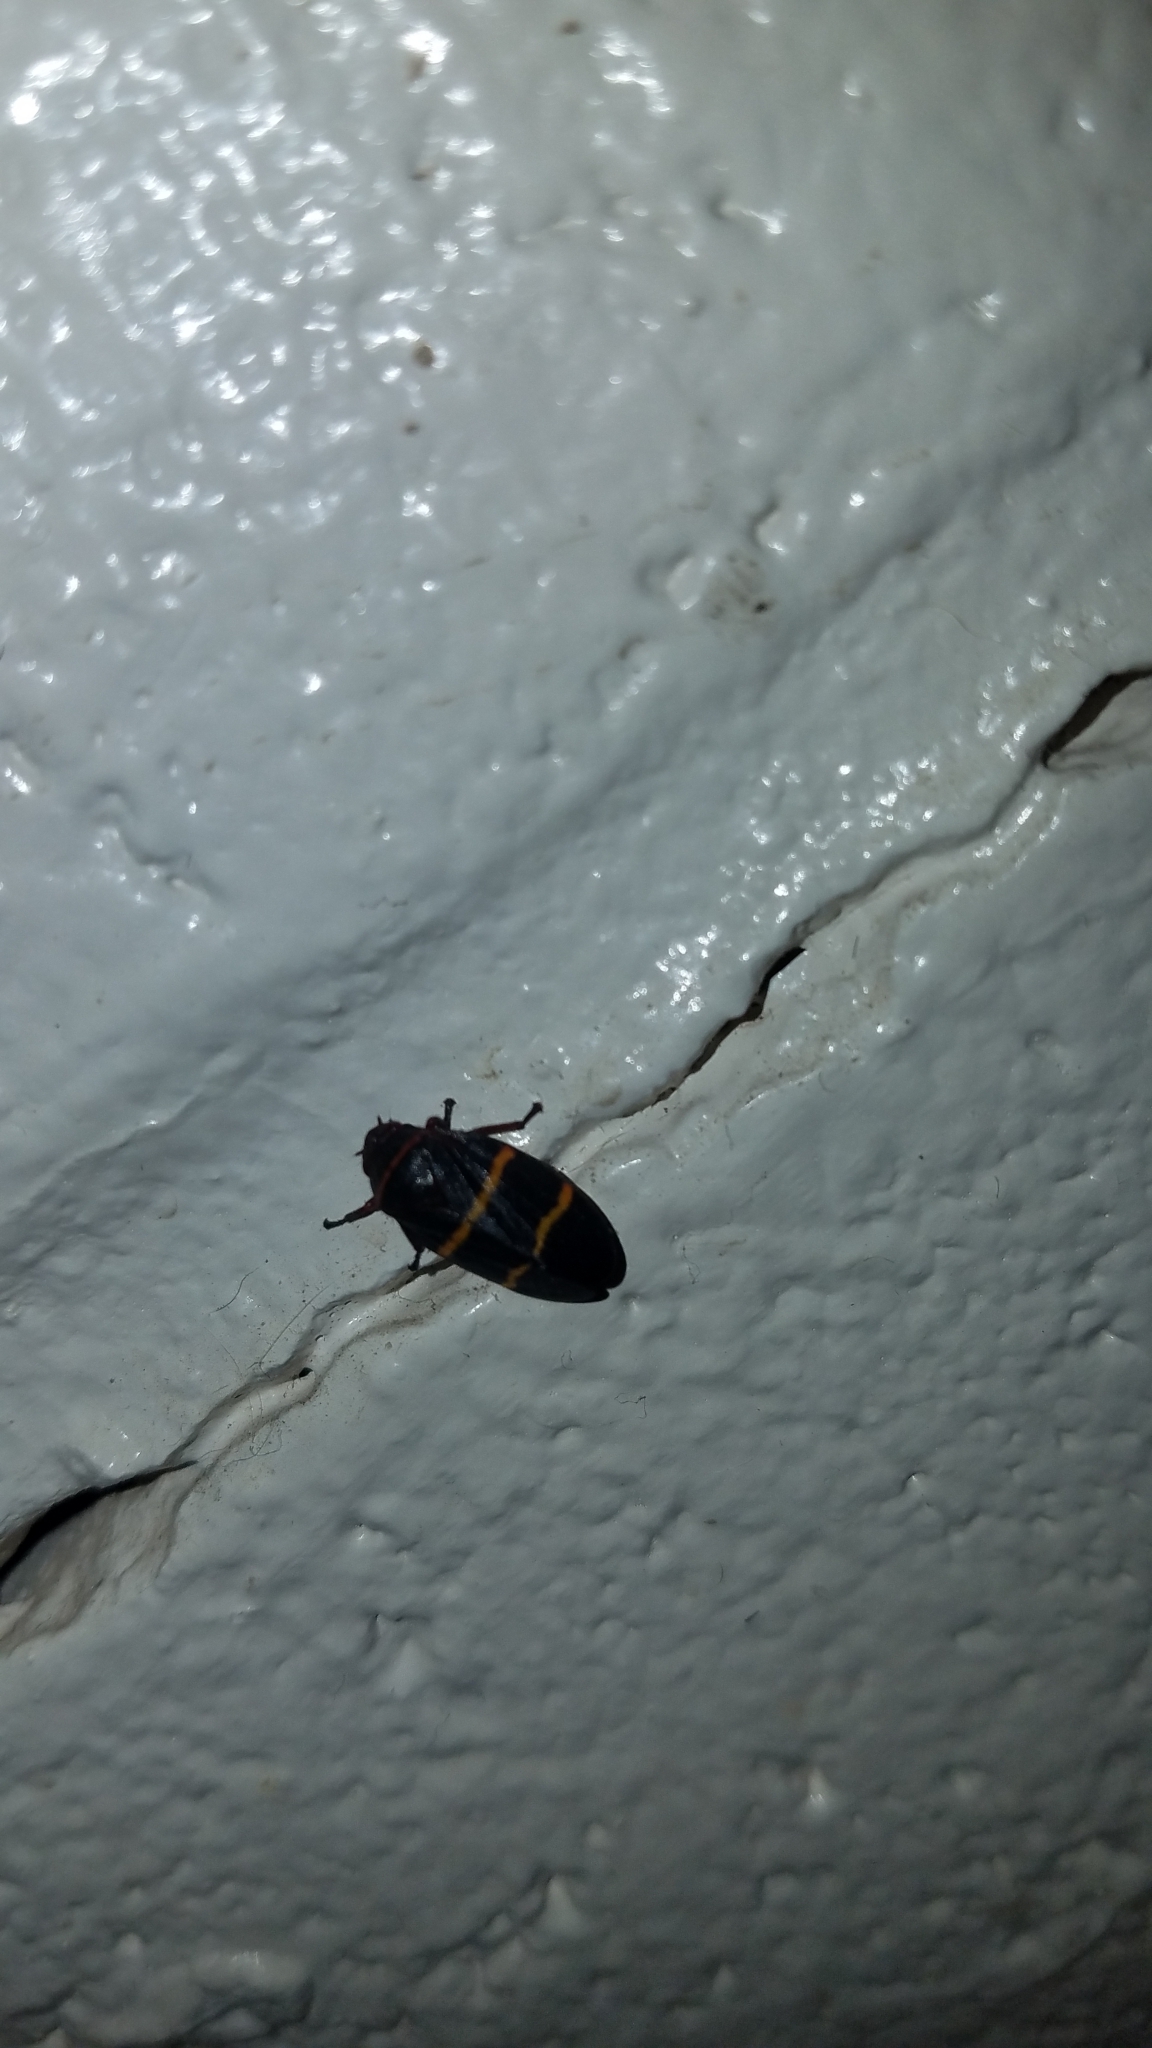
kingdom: Animalia
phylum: Arthropoda
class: Insecta
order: Hemiptera
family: Cercopidae
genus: Prosapia
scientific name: Prosapia bicincta
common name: Twolined spittlebug
